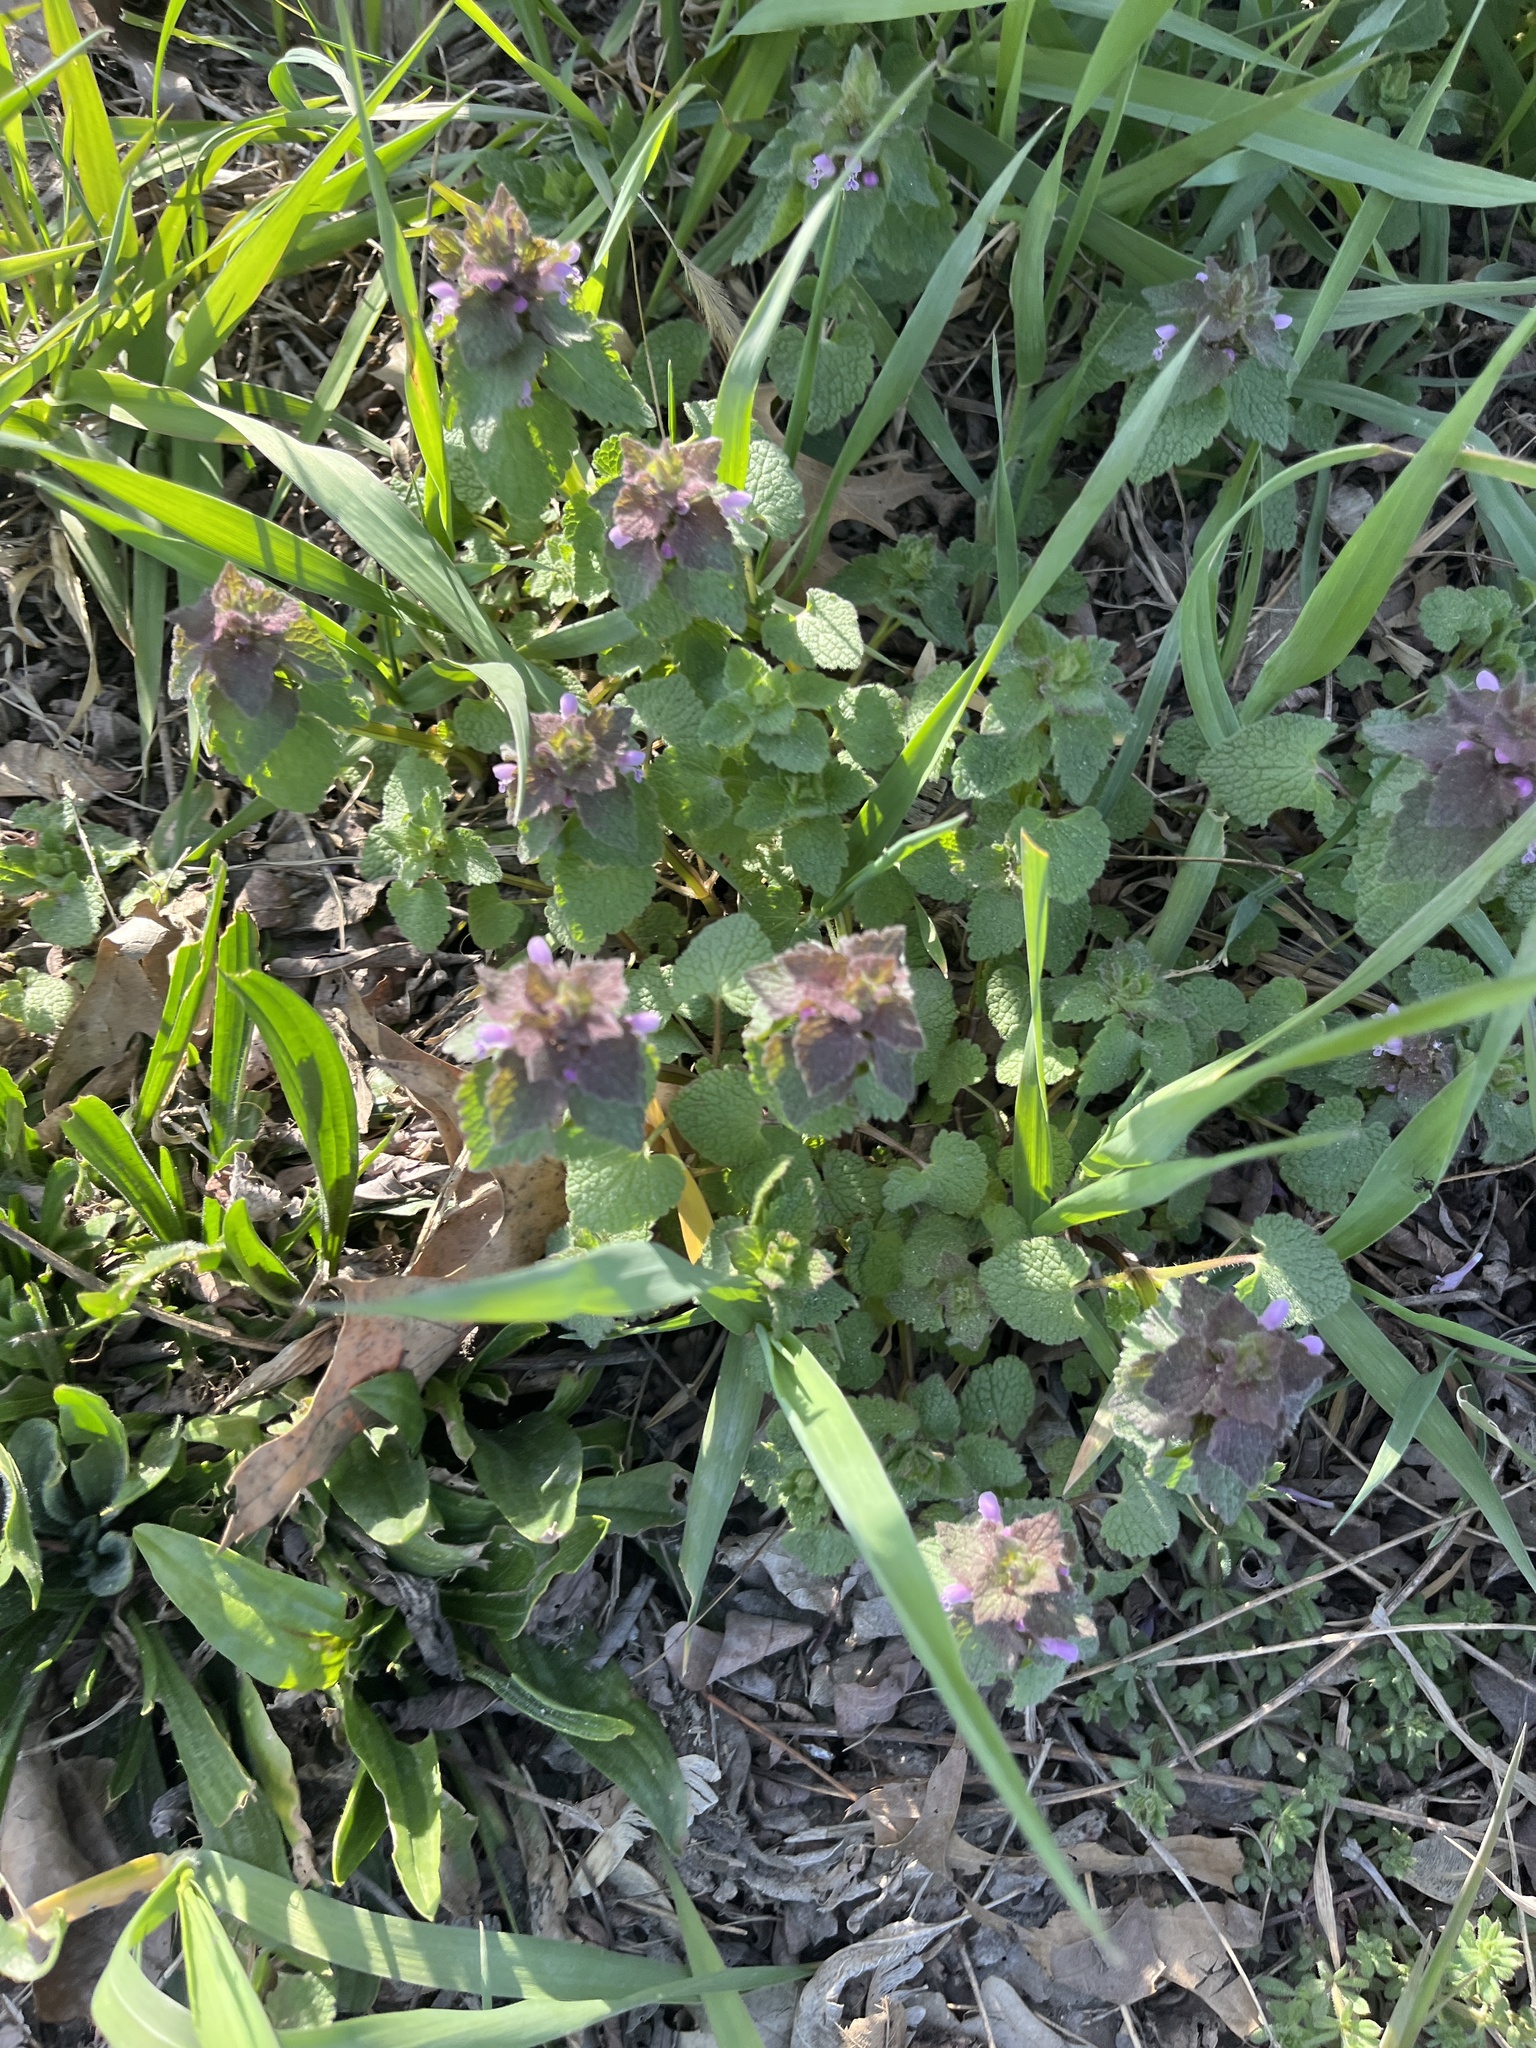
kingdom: Plantae
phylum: Tracheophyta
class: Magnoliopsida
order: Lamiales
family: Lamiaceae
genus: Lamium
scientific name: Lamium purpureum
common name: Red dead-nettle
